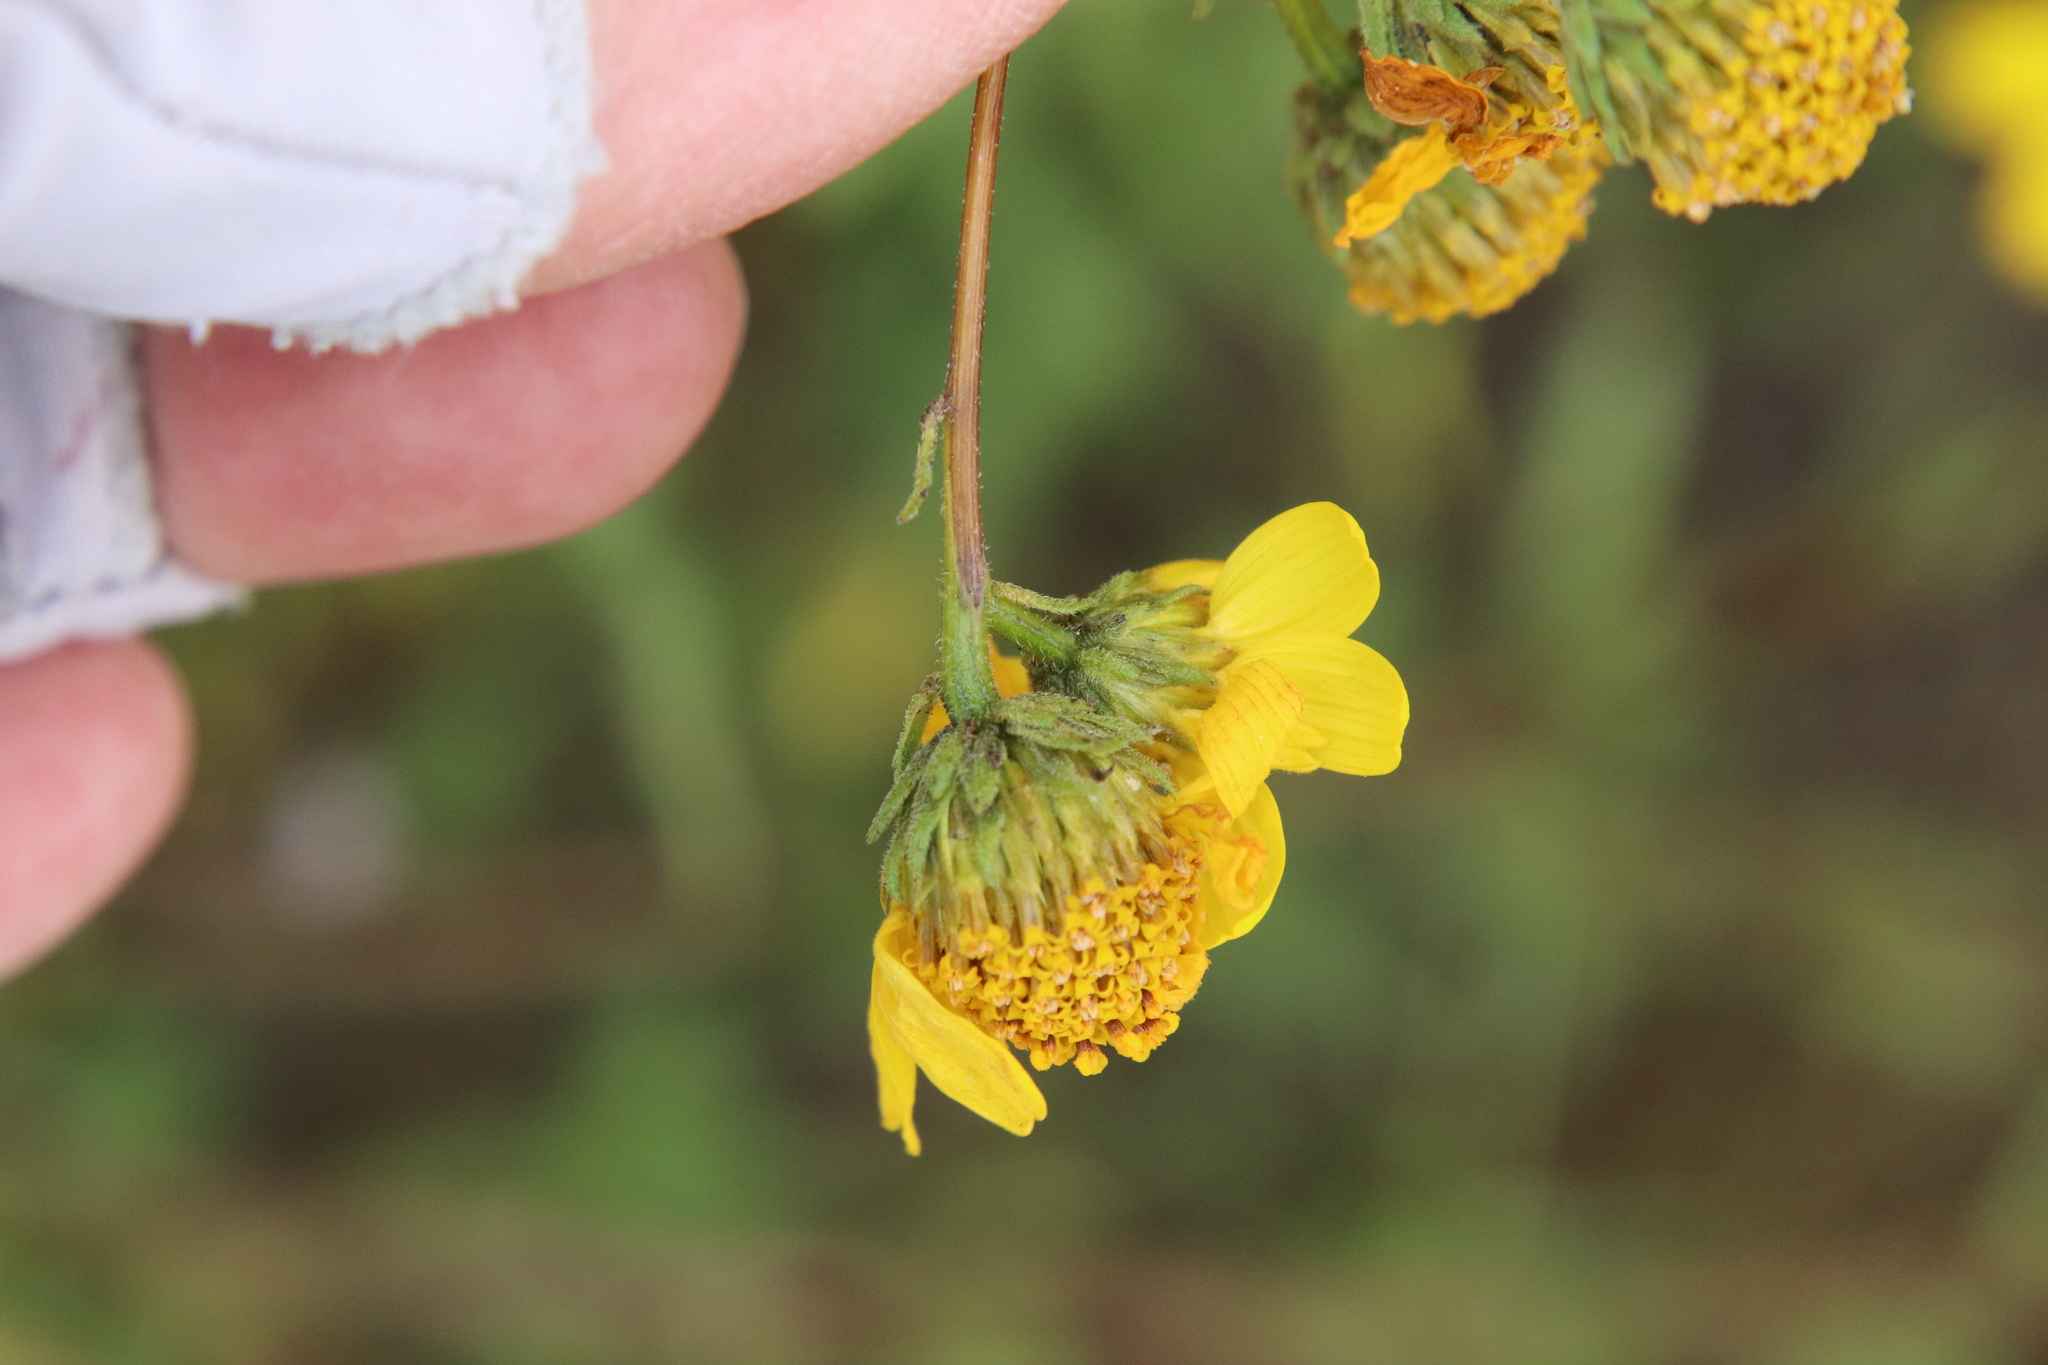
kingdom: Plantae
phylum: Tracheophyta
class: Magnoliopsida
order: Asterales
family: Asteraceae
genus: Bahiopsis
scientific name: Bahiopsis laciniata
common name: San diego county viguiera
